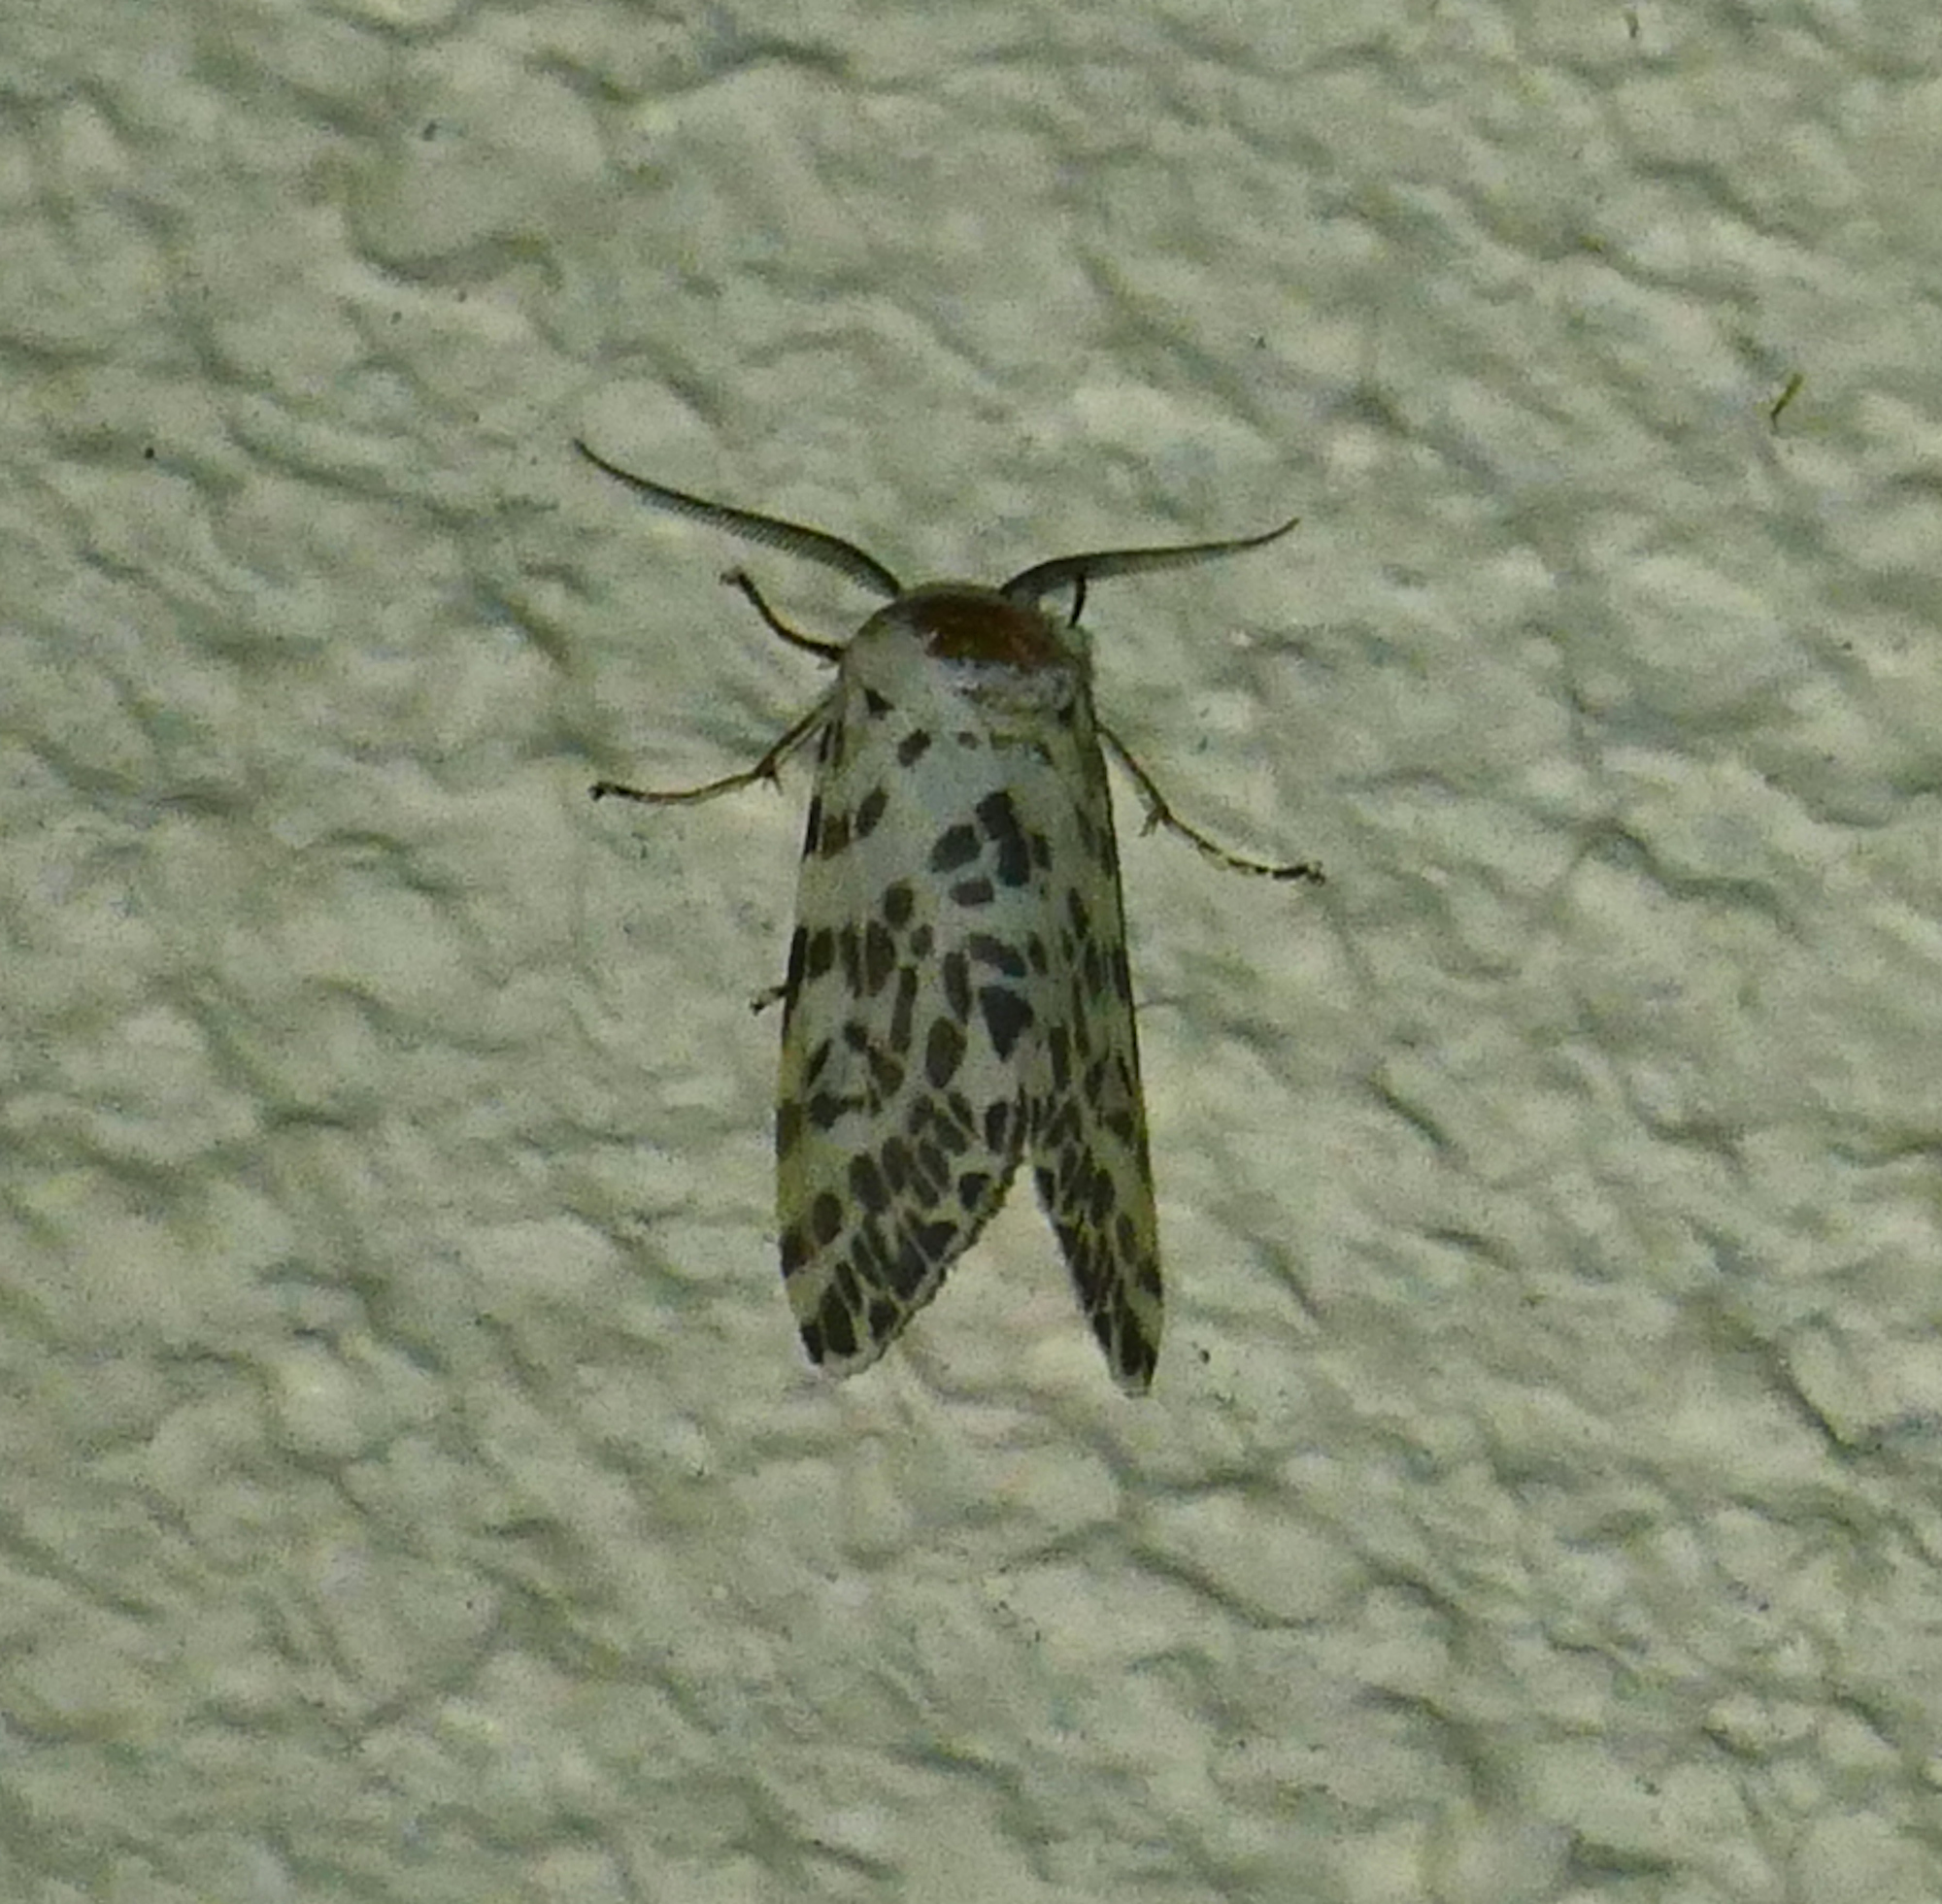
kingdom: Animalia
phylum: Arthropoda
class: Insecta
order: Lepidoptera
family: Erebidae
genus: Hyphantria
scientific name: Hyphantria cunea
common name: American white moth
